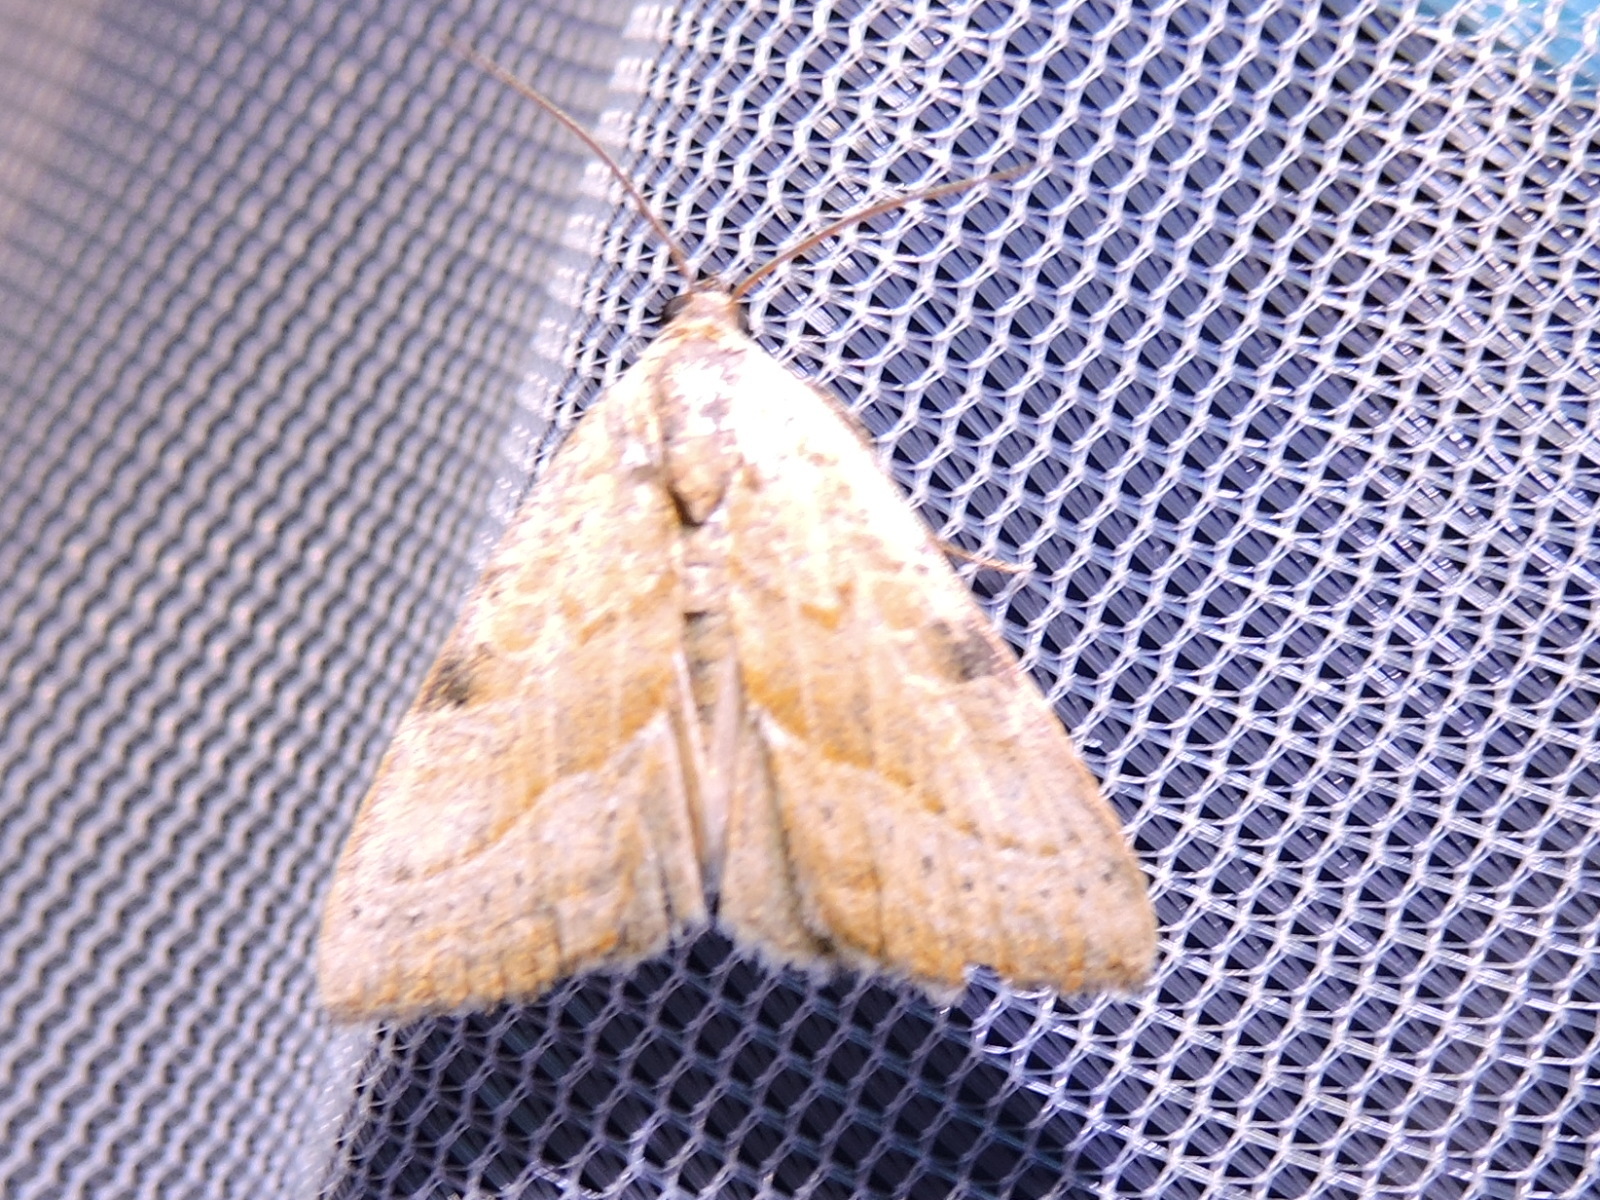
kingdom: Animalia
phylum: Arthropoda
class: Insecta
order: Lepidoptera
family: Noctuidae
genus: Galgula
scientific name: Galgula partita
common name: Wedgeling
